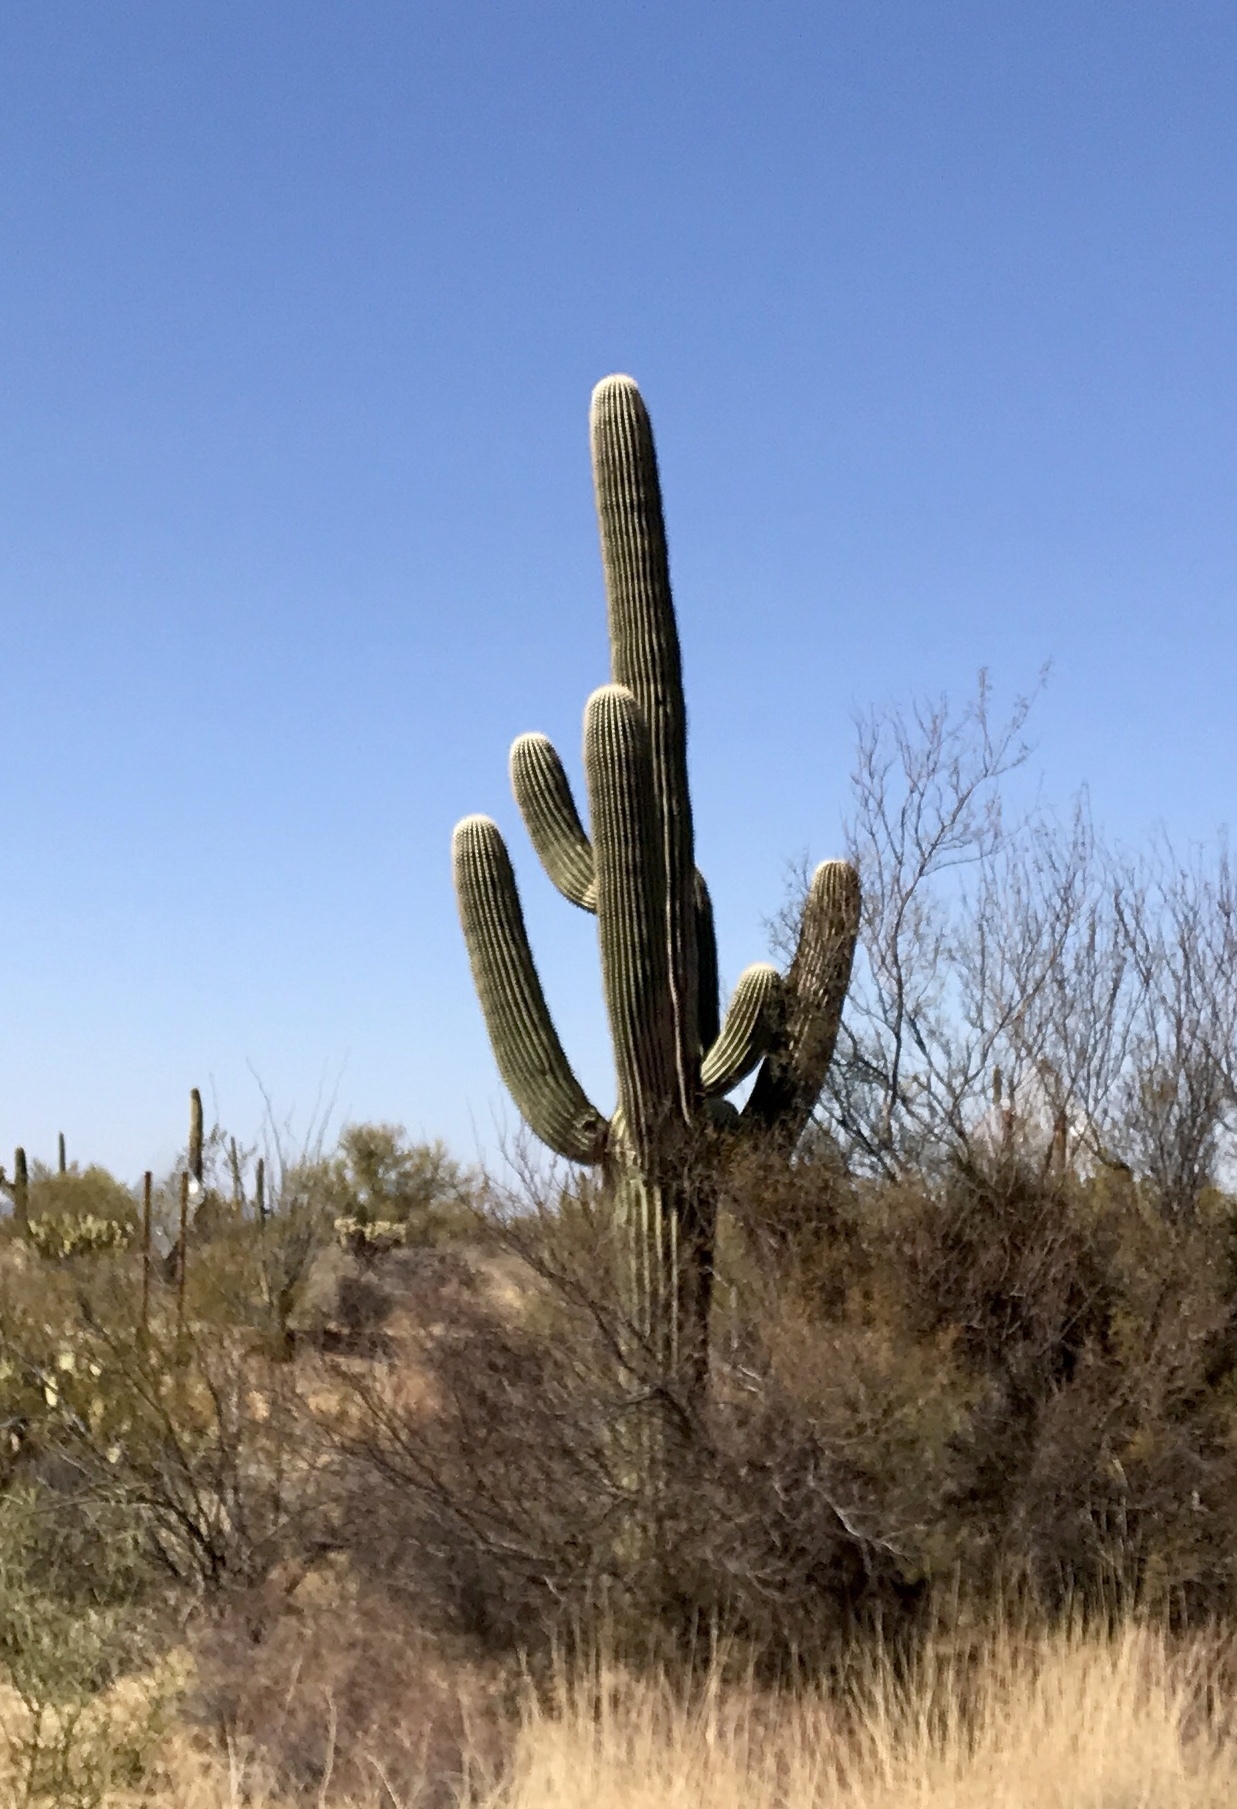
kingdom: Plantae
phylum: Tracheophyta
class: Magnoliopsida
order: Caryophyllales
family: Cactaceae
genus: Carnegiea
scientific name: Carnegiea gigantea
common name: Saguaro
